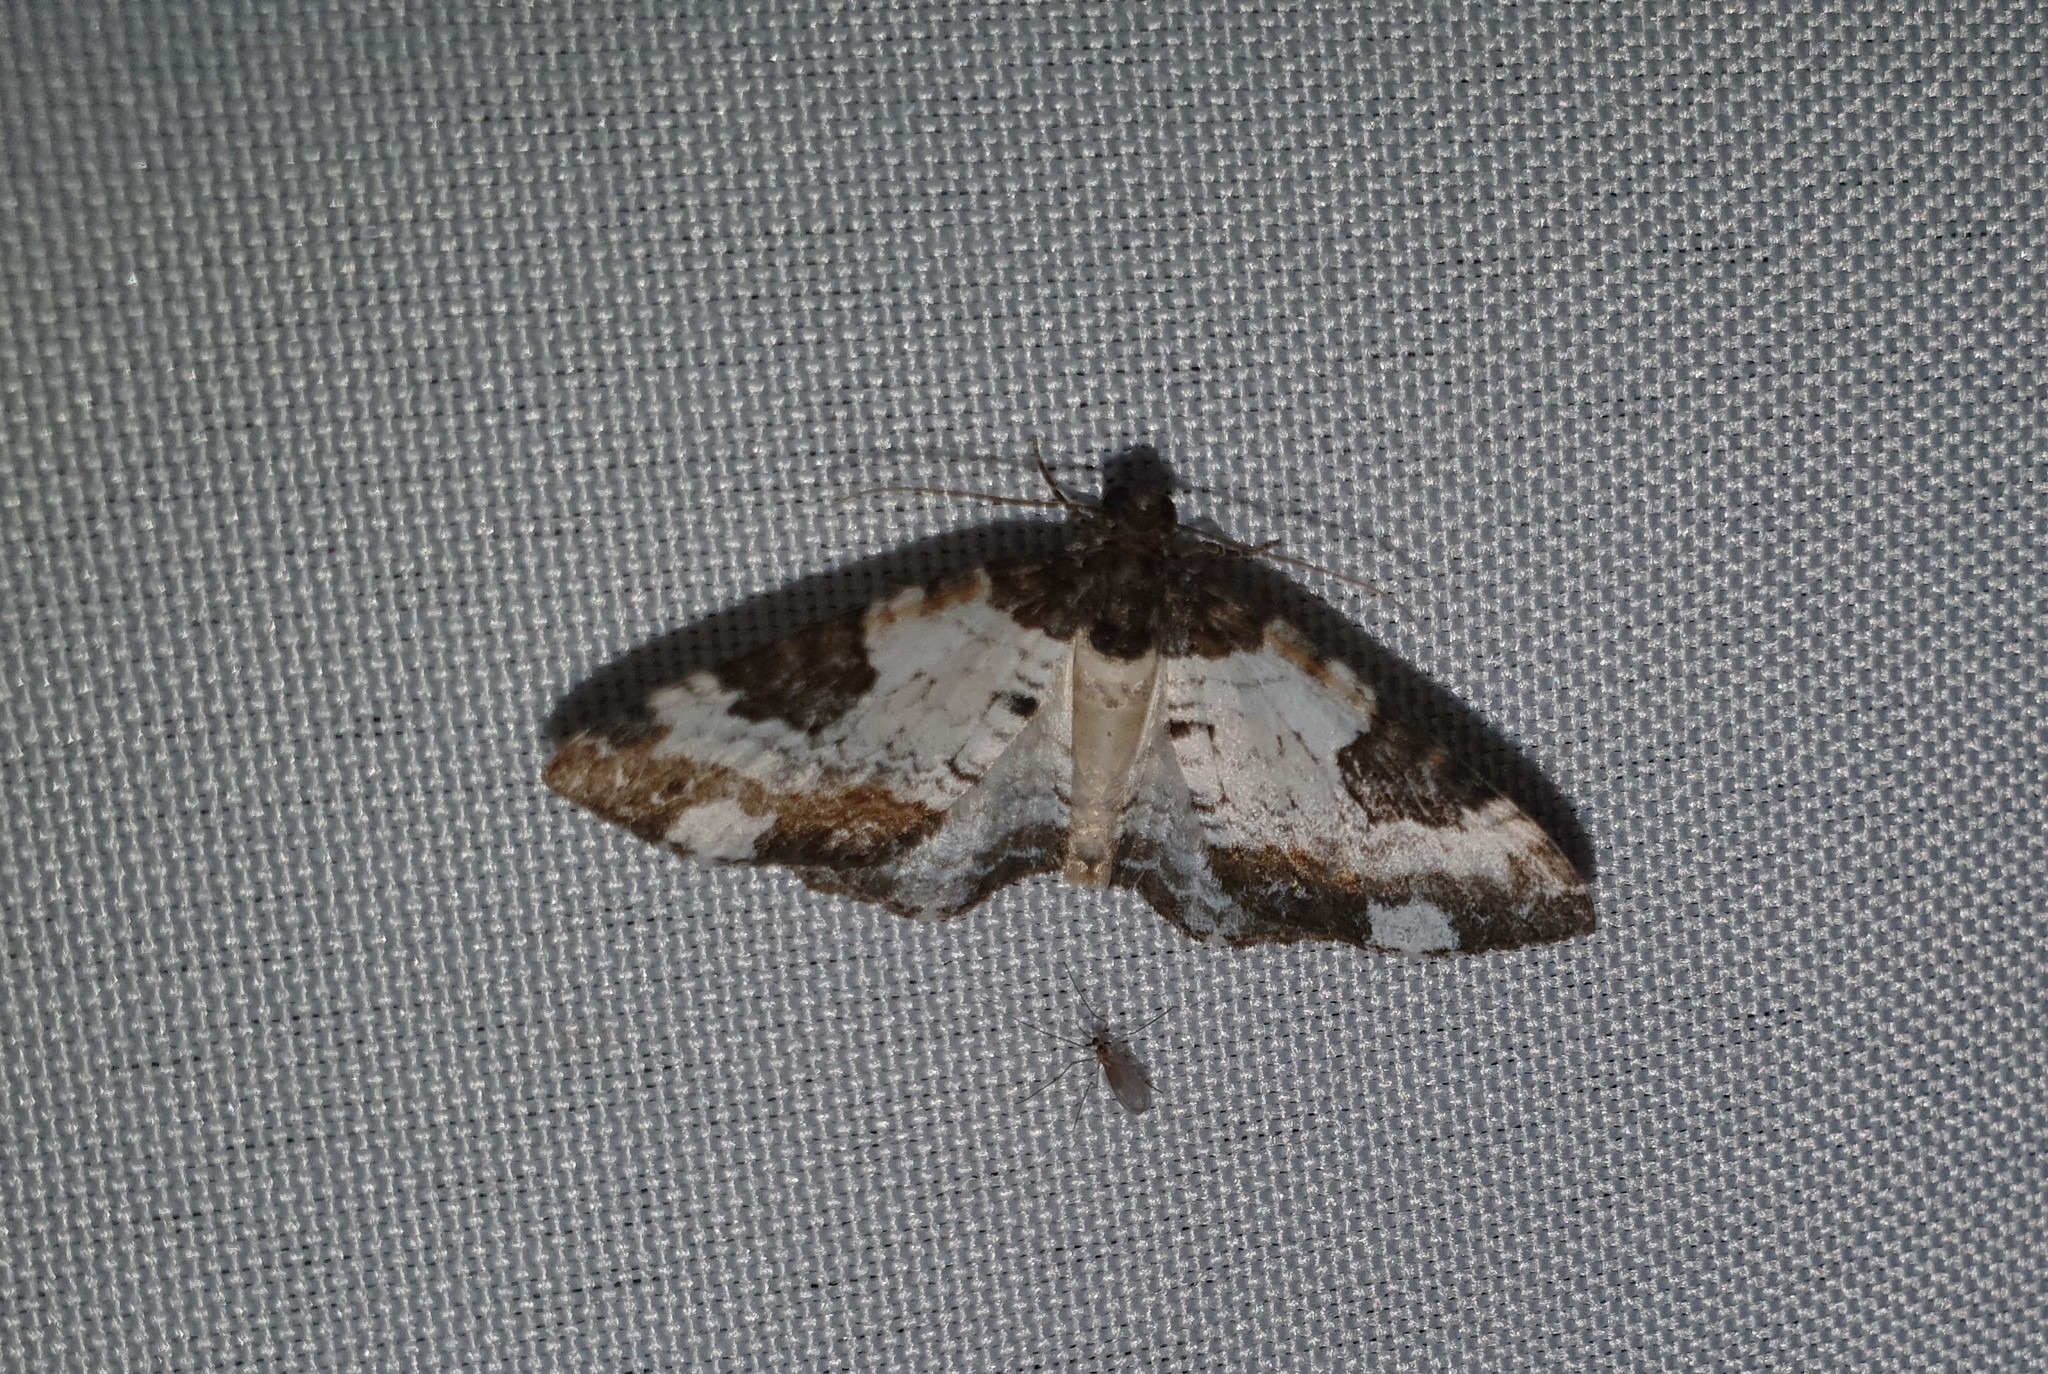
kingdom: Animalia
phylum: Arthropoda
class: Insecta
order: Lepidoptera
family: Geometridae
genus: Melanthia
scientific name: Melanthia procellata
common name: Pretty chalk carpet
